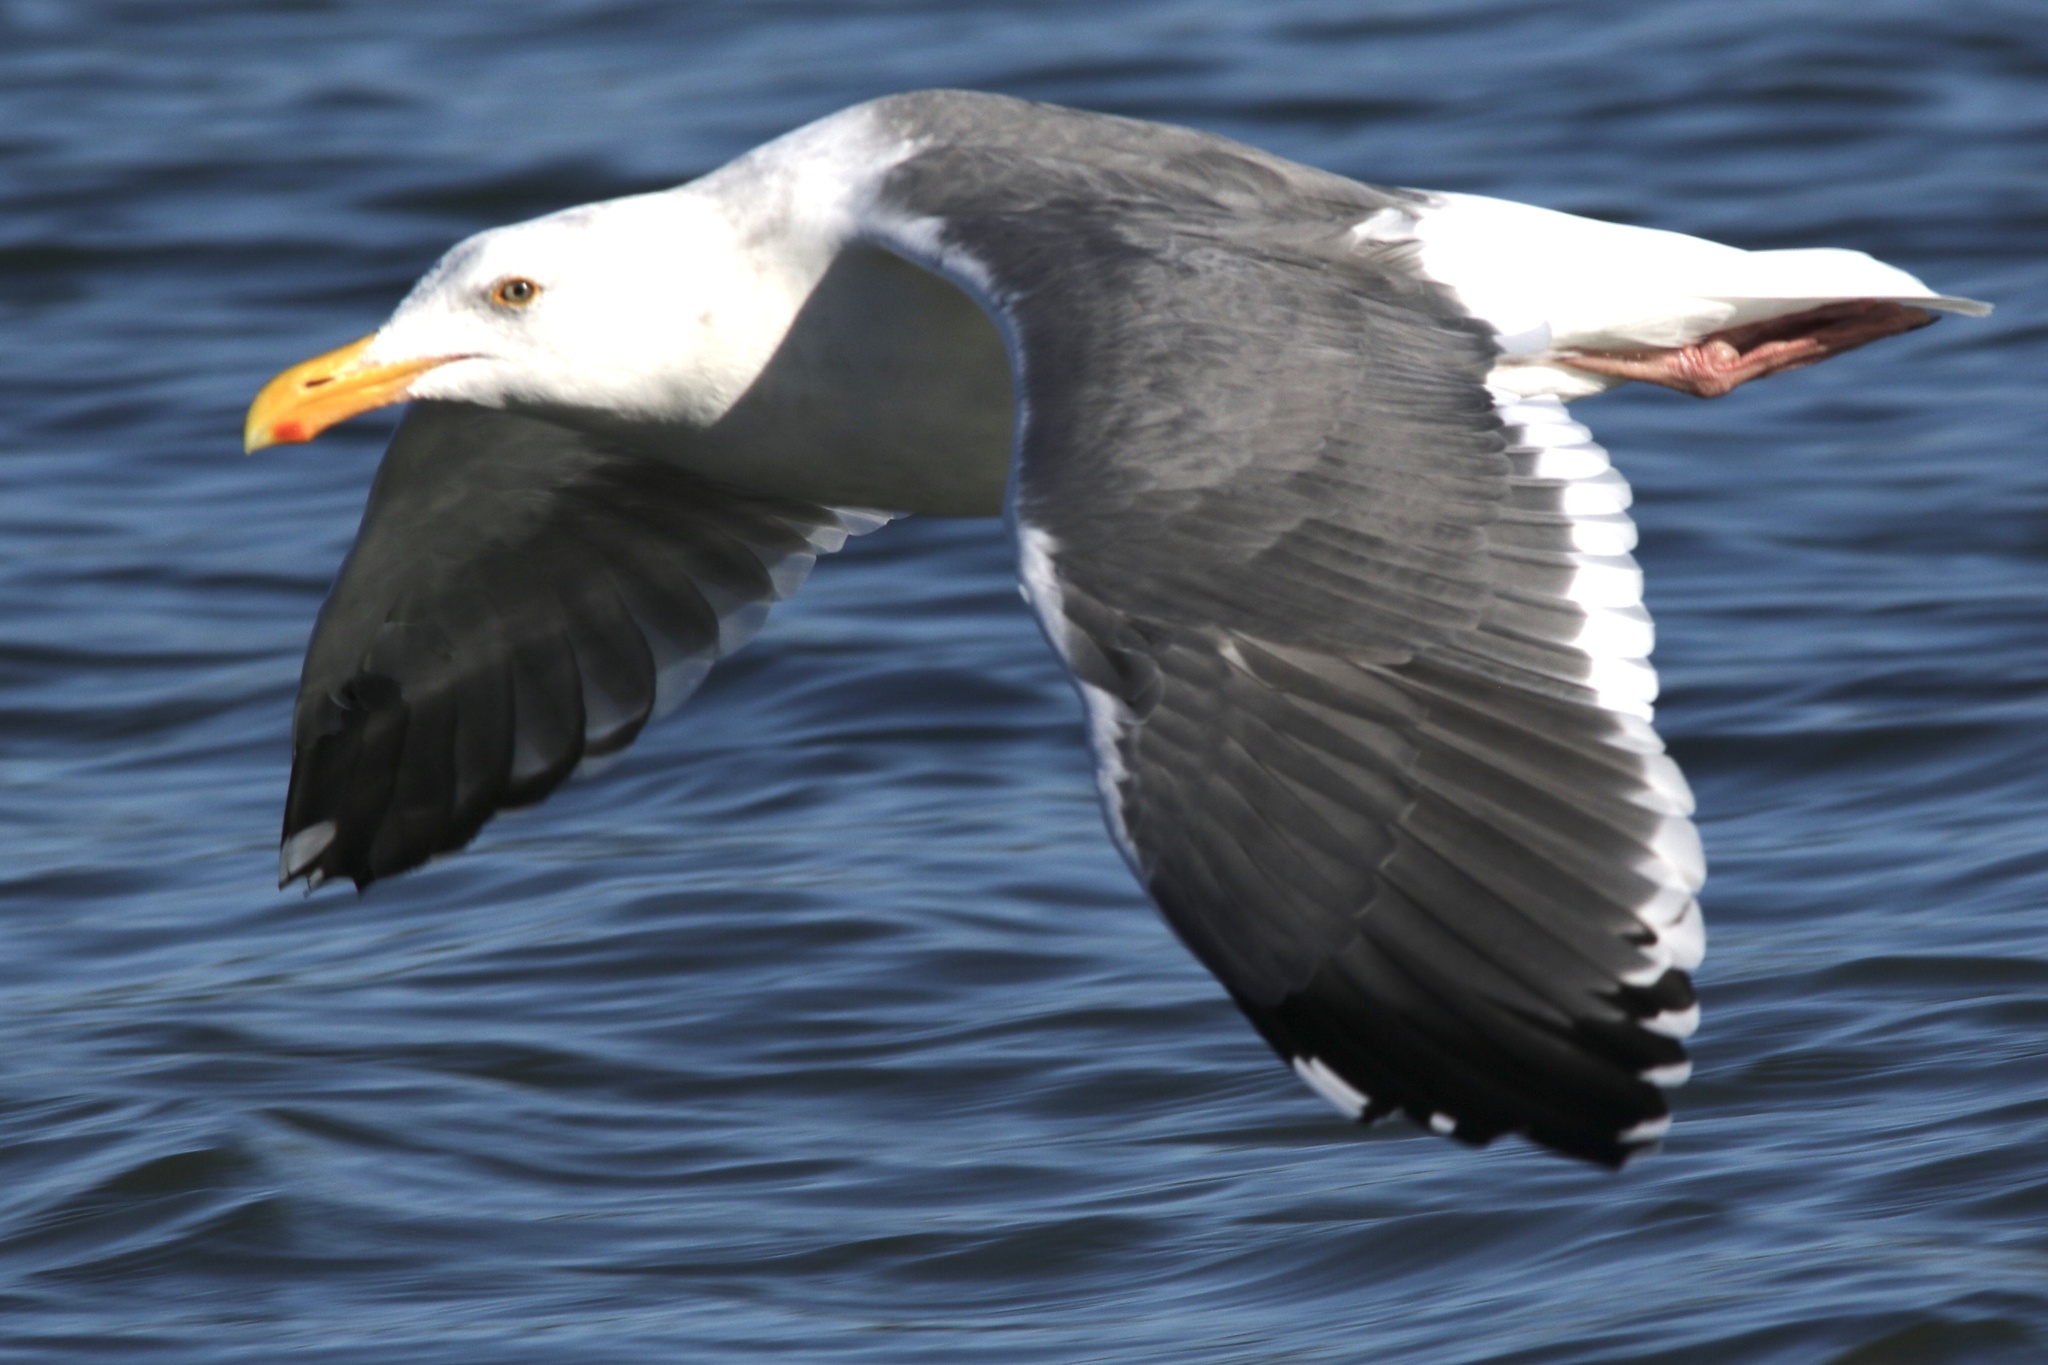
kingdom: Animalia
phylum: Chordata
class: Aves
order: Charadriiformes
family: Laridae
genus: Larus
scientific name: Larus occidentalis
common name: Western gull
